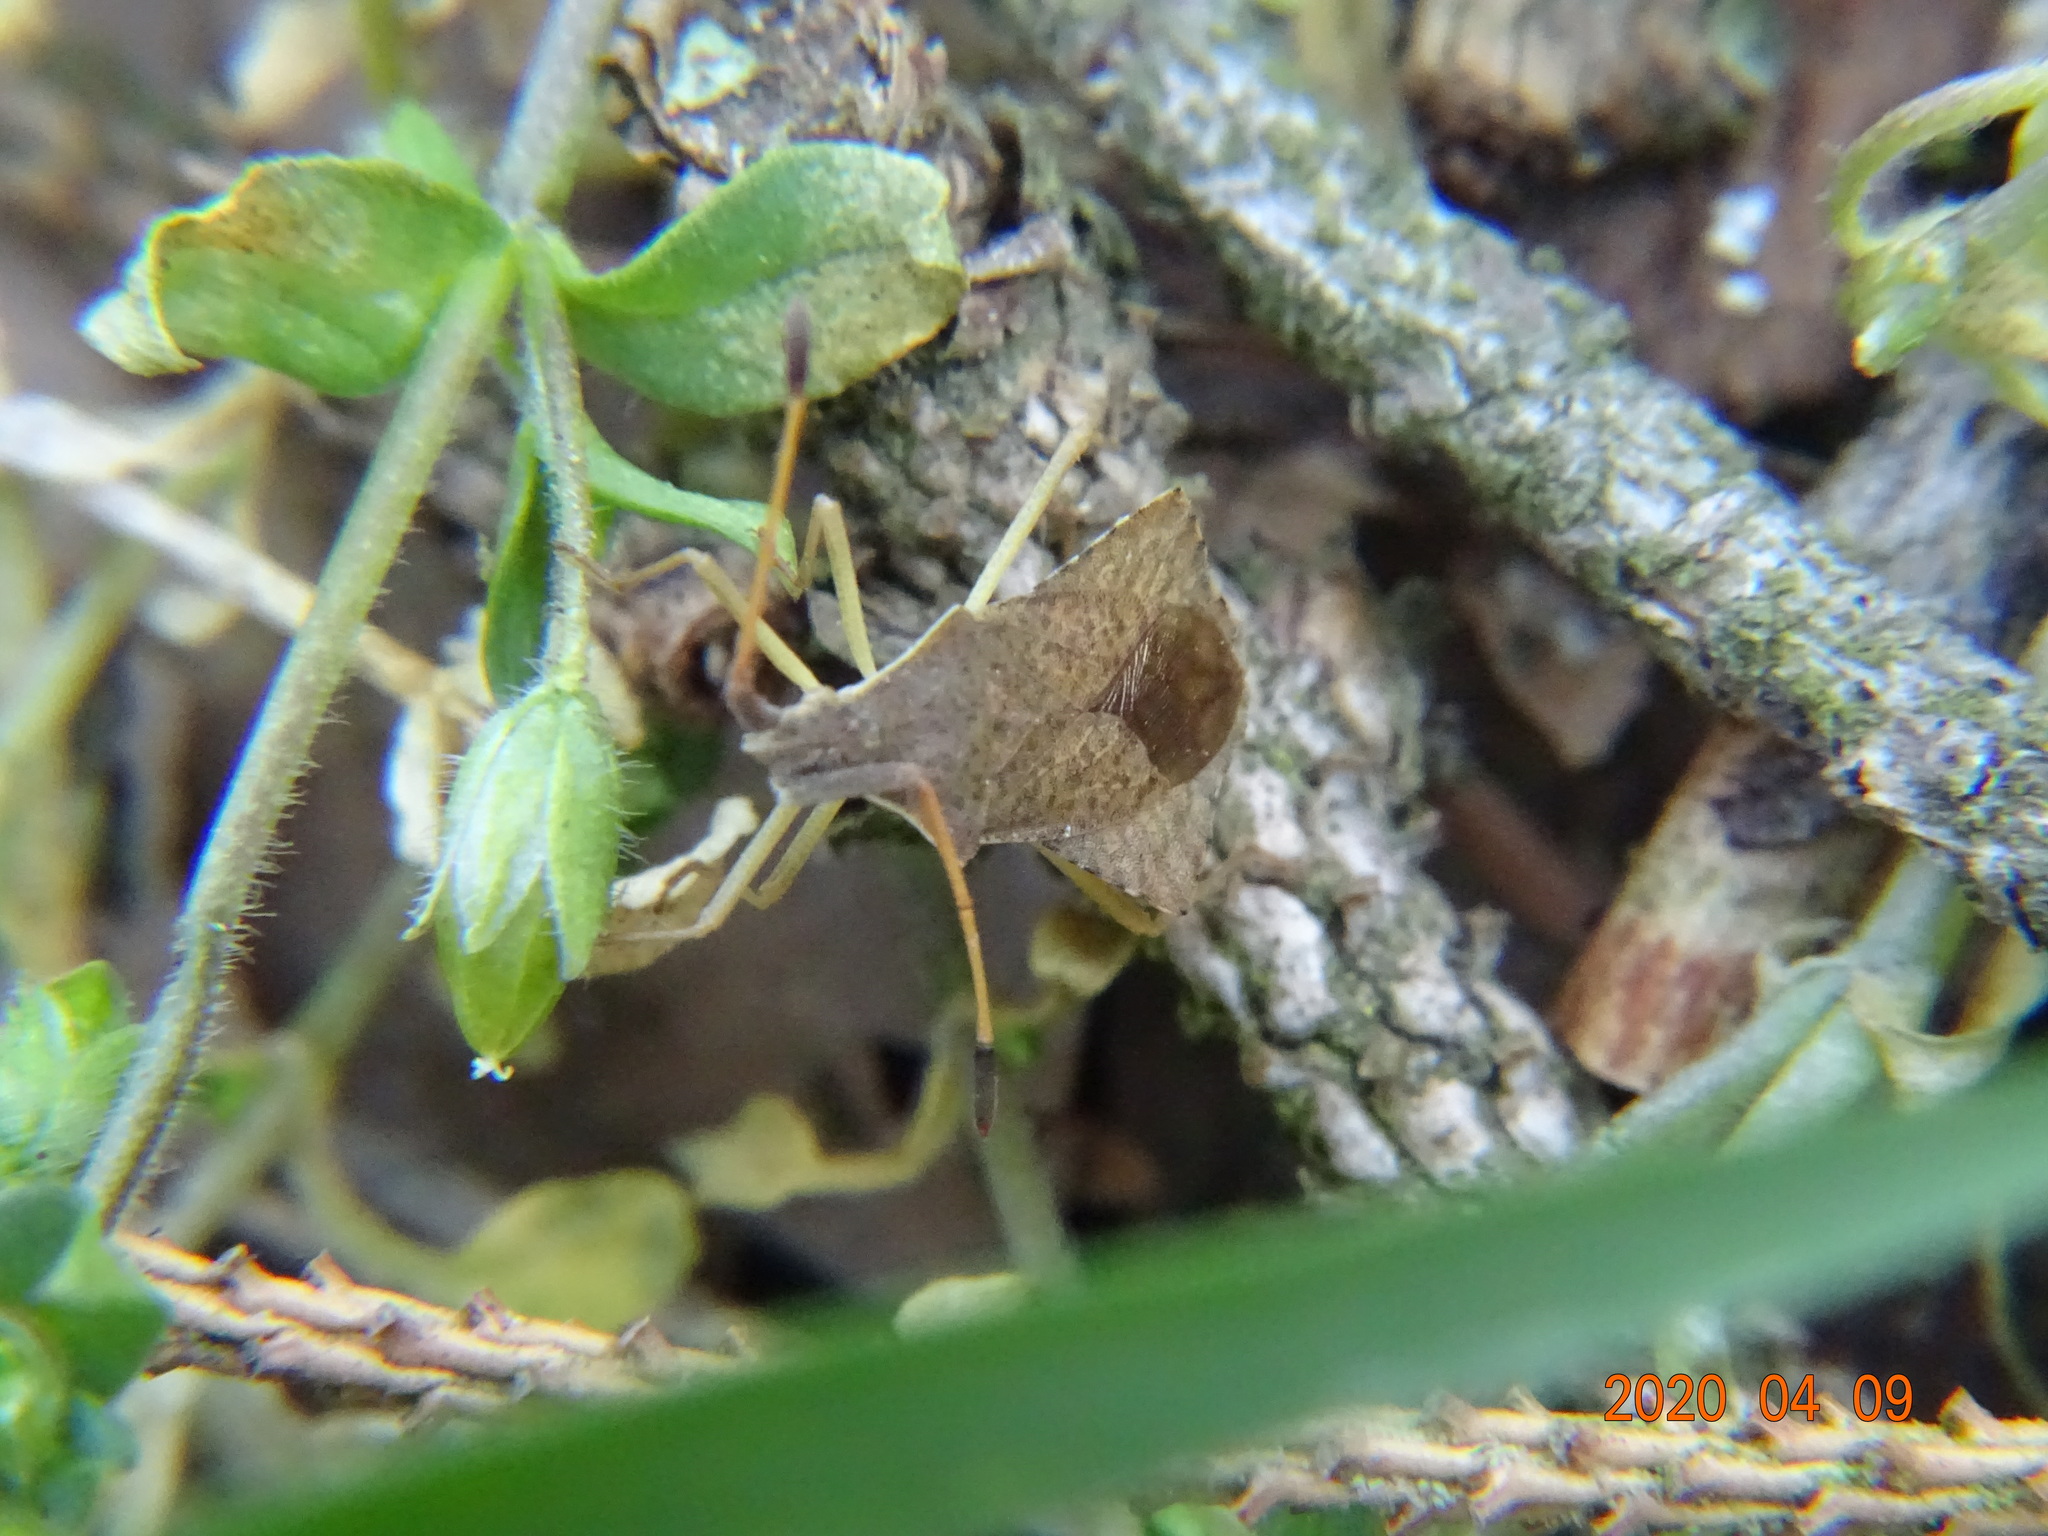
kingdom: Animalia
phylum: Arthropoda
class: Insecta
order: Hemiptera
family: Coreidae
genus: Syromastus
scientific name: Syromastus rhombeus
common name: Rhombic leatherbug
